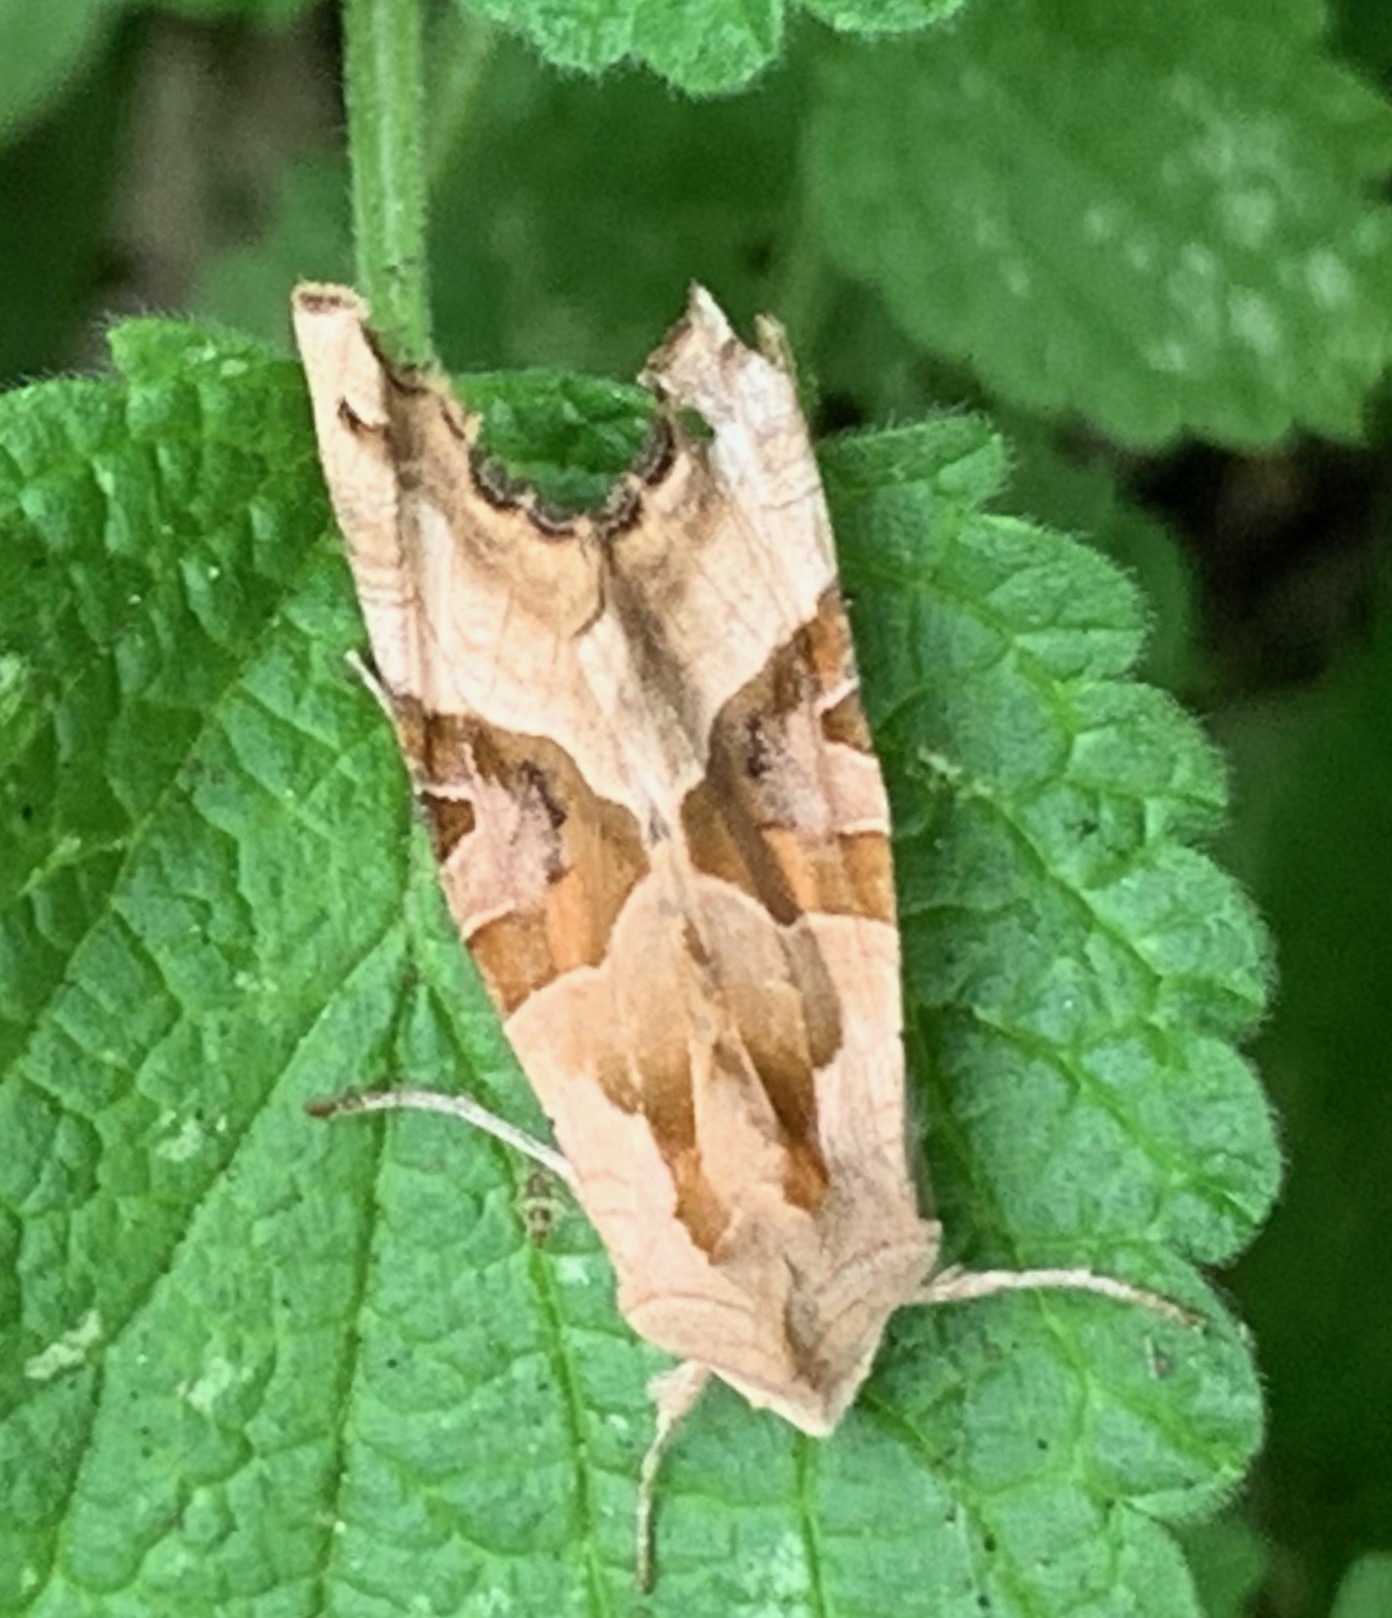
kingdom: Animalia
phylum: Arthropoda
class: Insecta
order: Lepidoptera
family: Noctuidae
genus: Phlogophora
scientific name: Phlogophora meticulosa
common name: Angle shades
